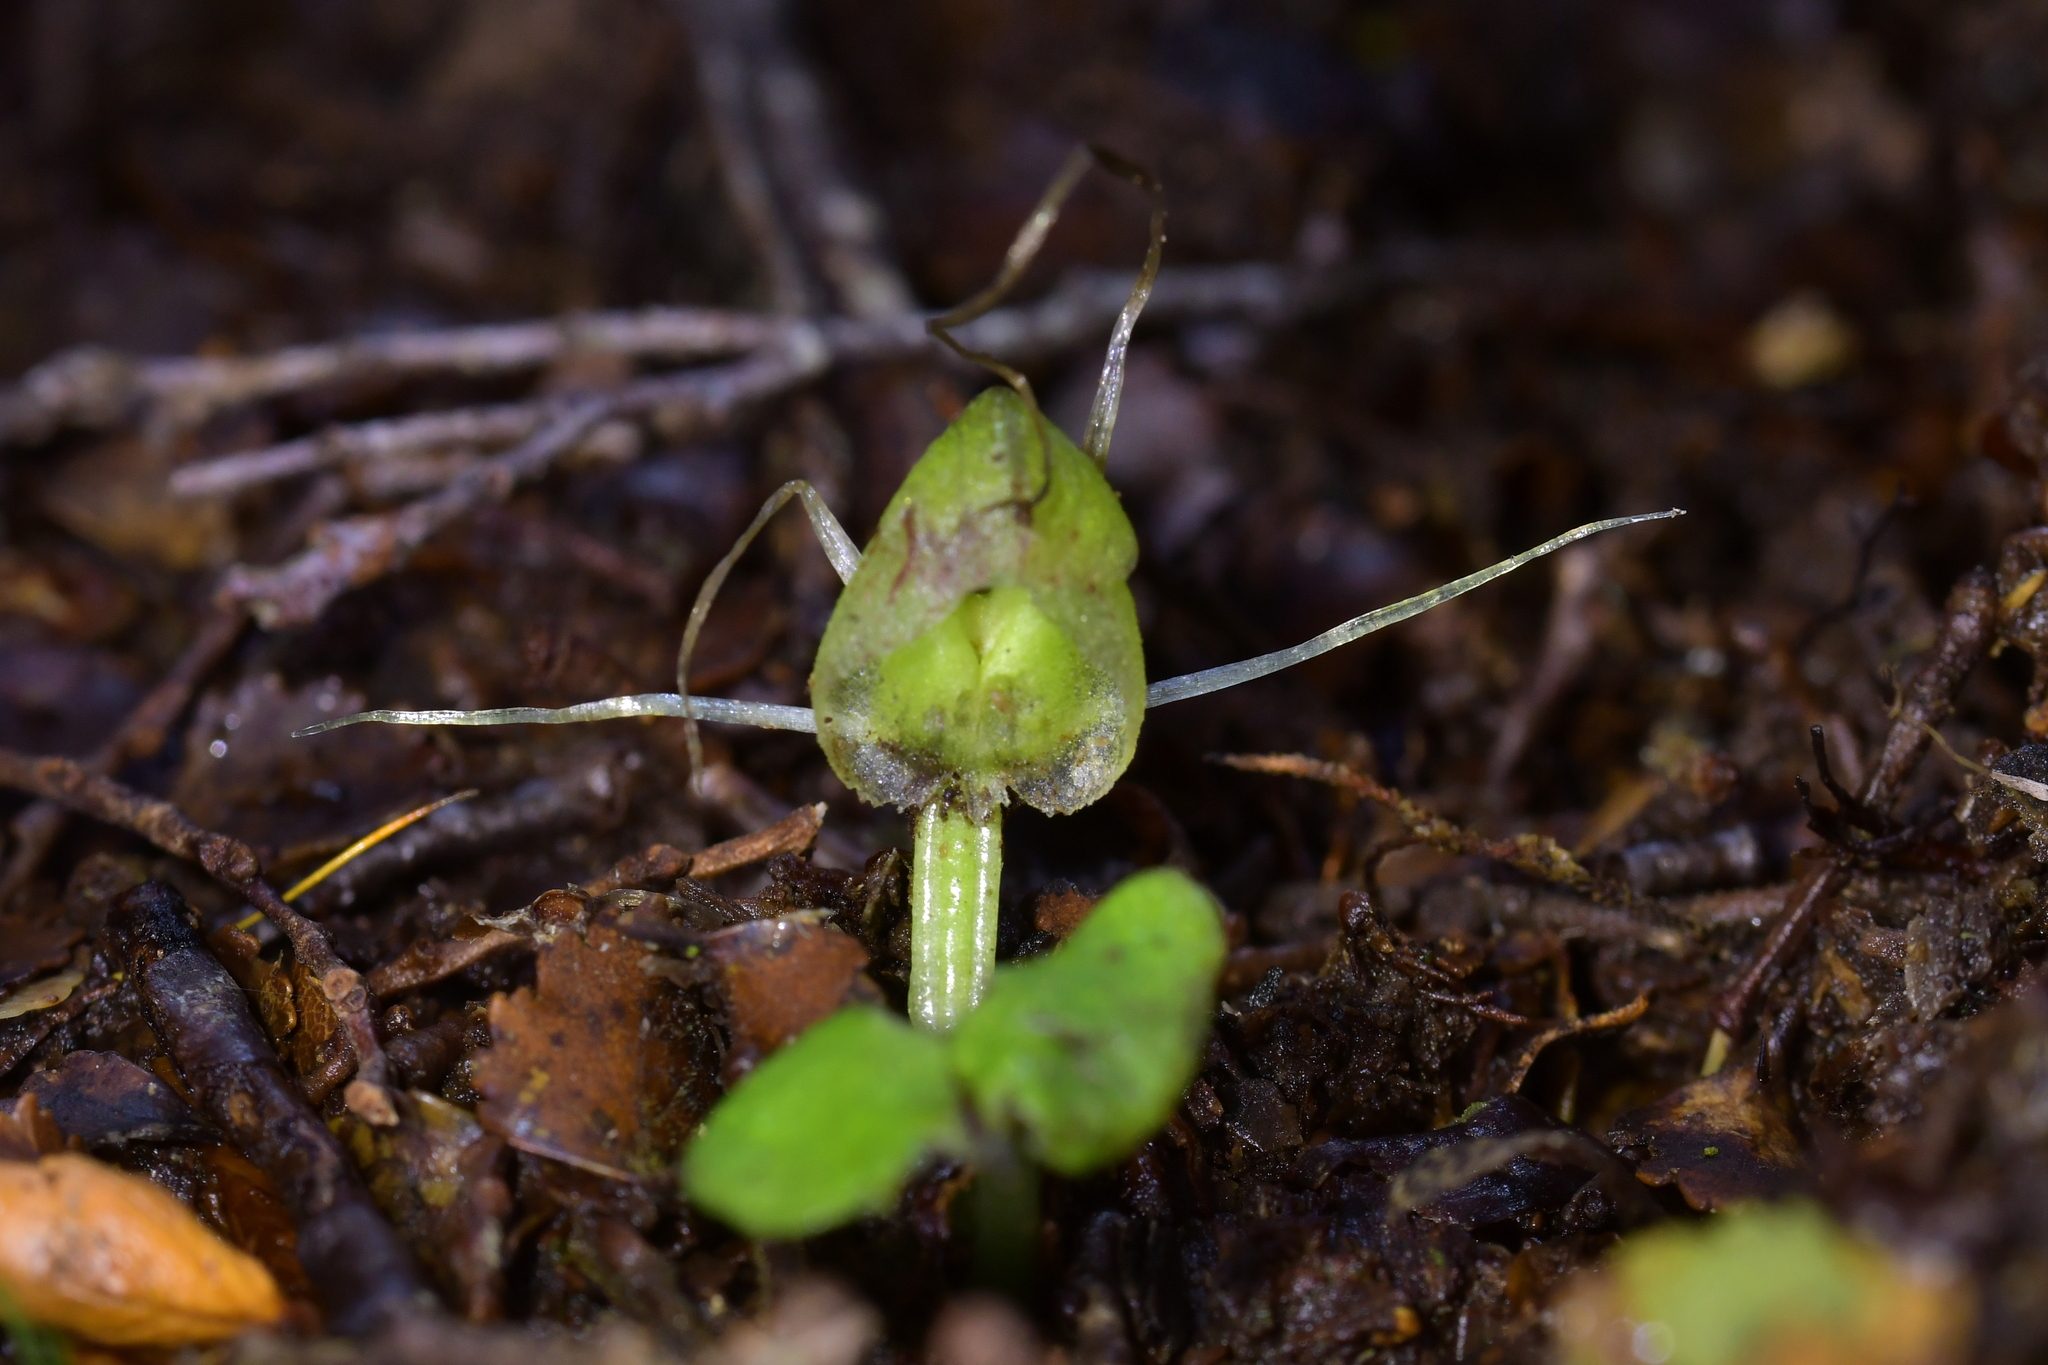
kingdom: Plantae
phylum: Tracheophyta
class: Liliopsida
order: Asparagales
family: Orchidaceae
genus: Corybas
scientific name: Corybas walliae
